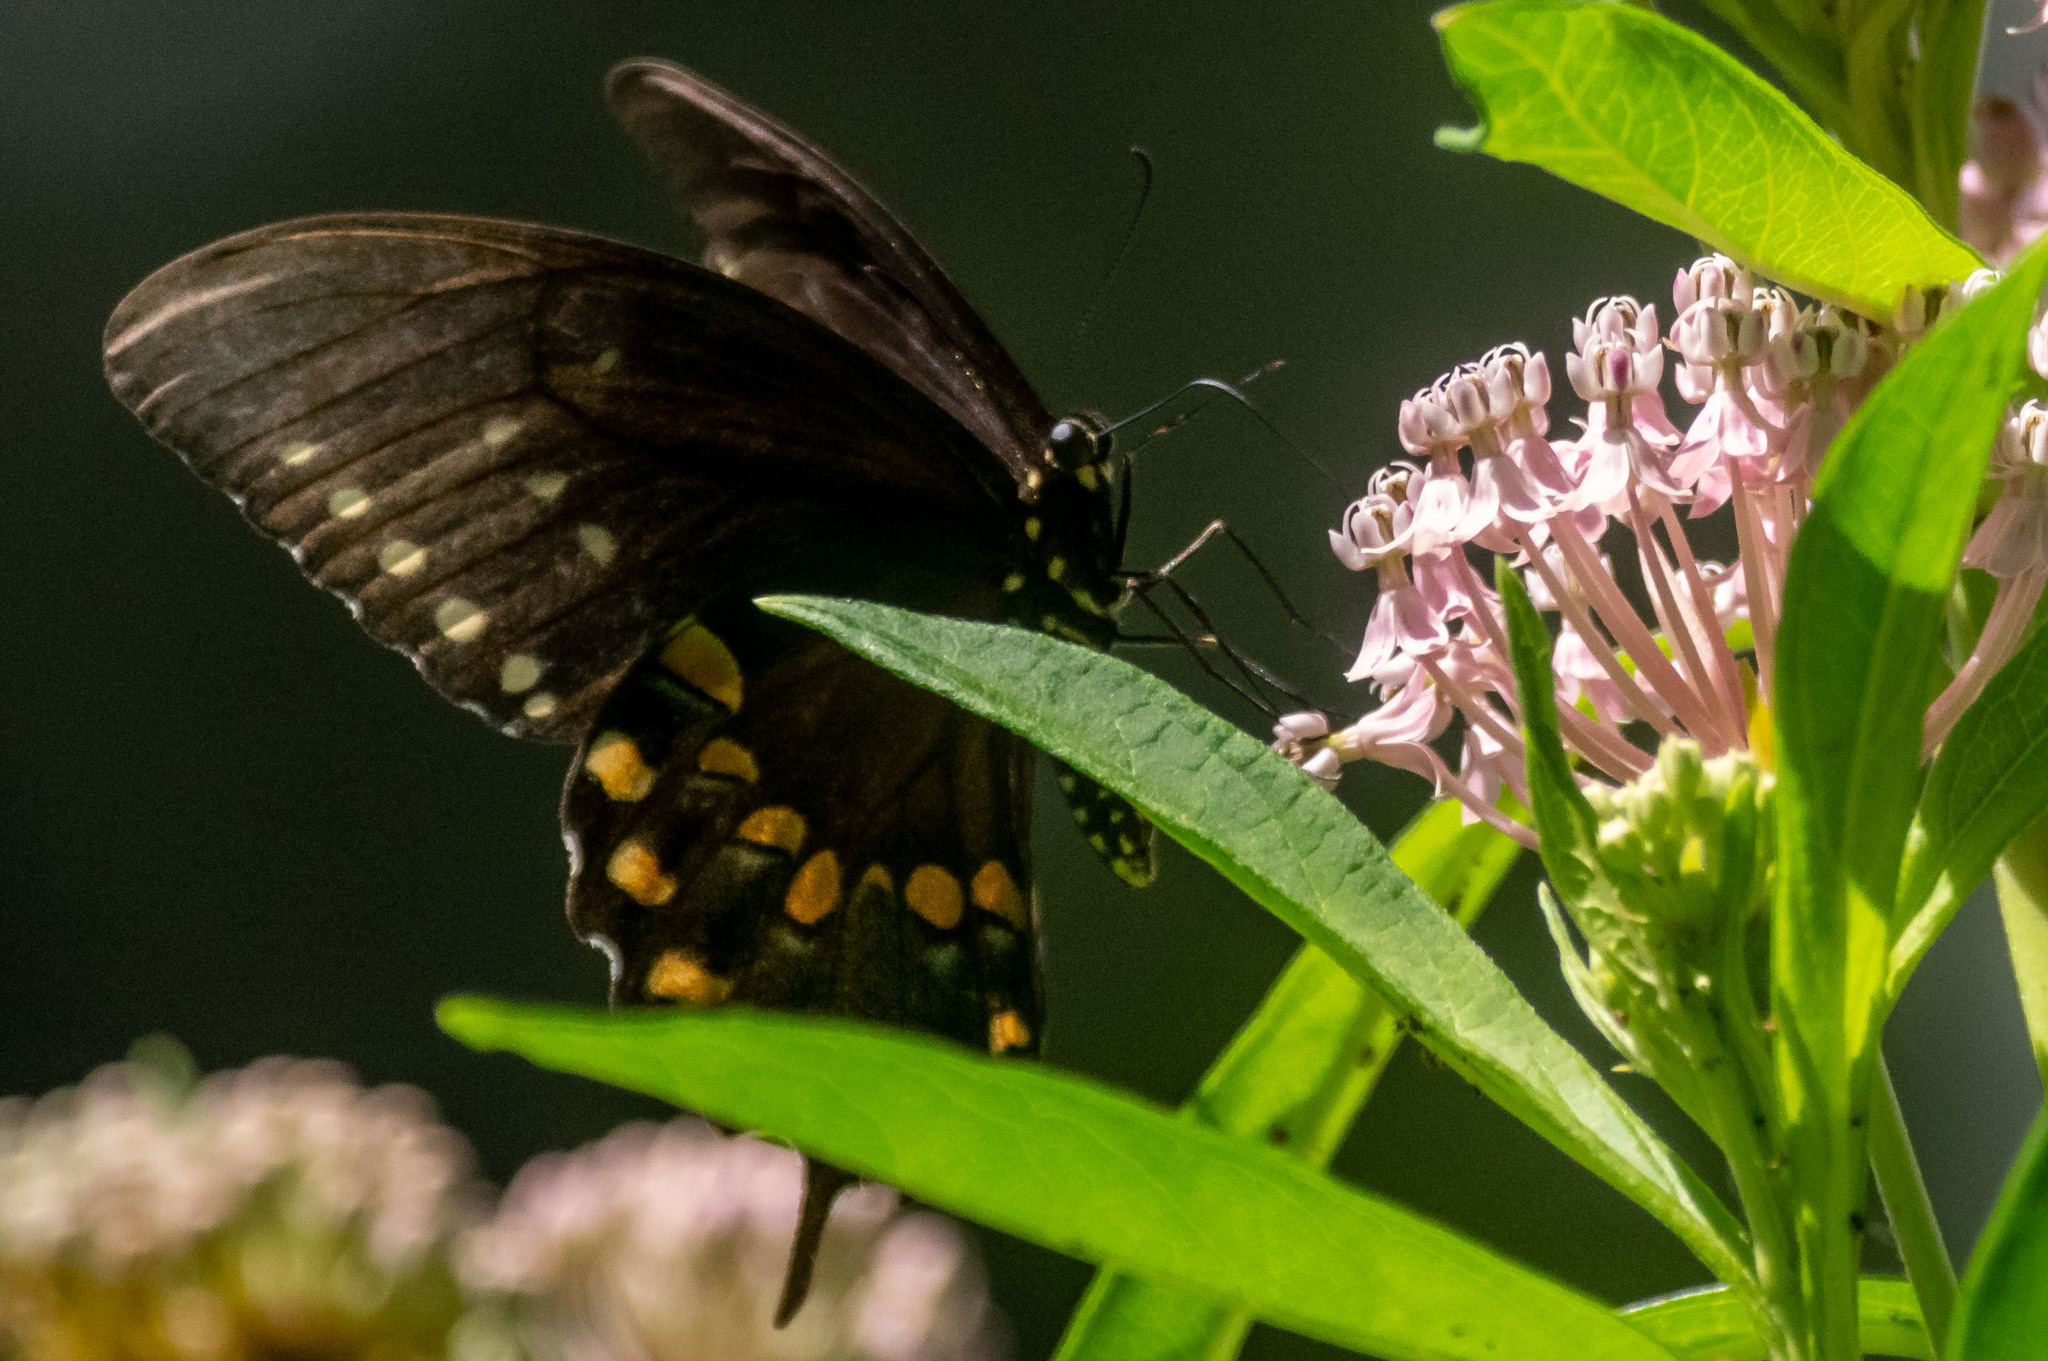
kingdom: Animalia
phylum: Arthropoda
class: Insecta
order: Lepidoptera
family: Papilionidae
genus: Papilio
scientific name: Papilio troilus
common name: Spicebush swallowtail
